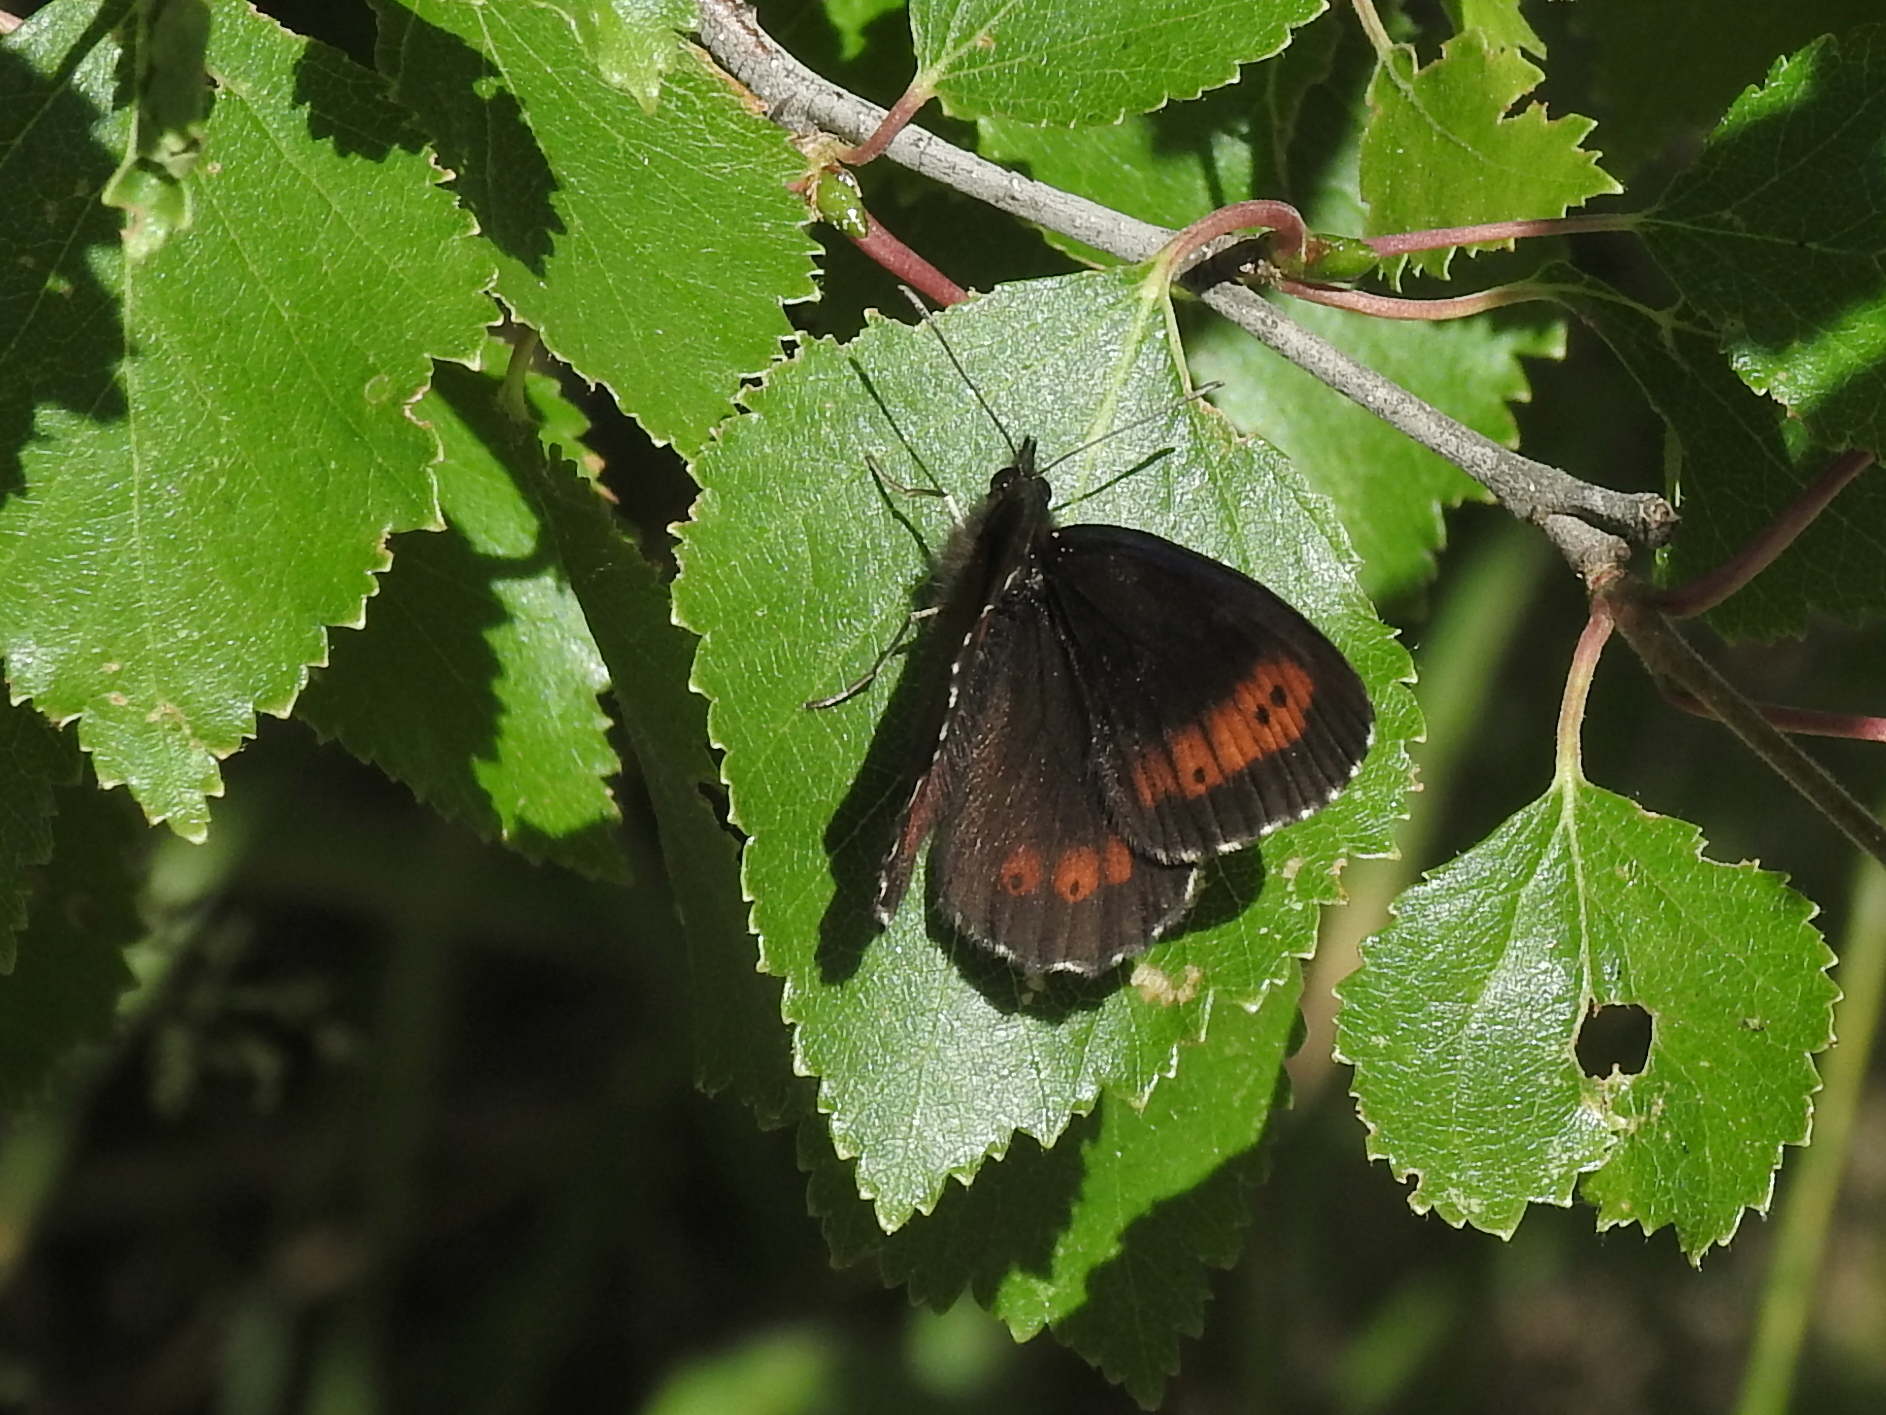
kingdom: Animalia
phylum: Arthropoda
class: Insecta
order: Lepidoptera
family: Nymphalidae
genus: Erebia
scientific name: Erebia ligea
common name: Arran brown
